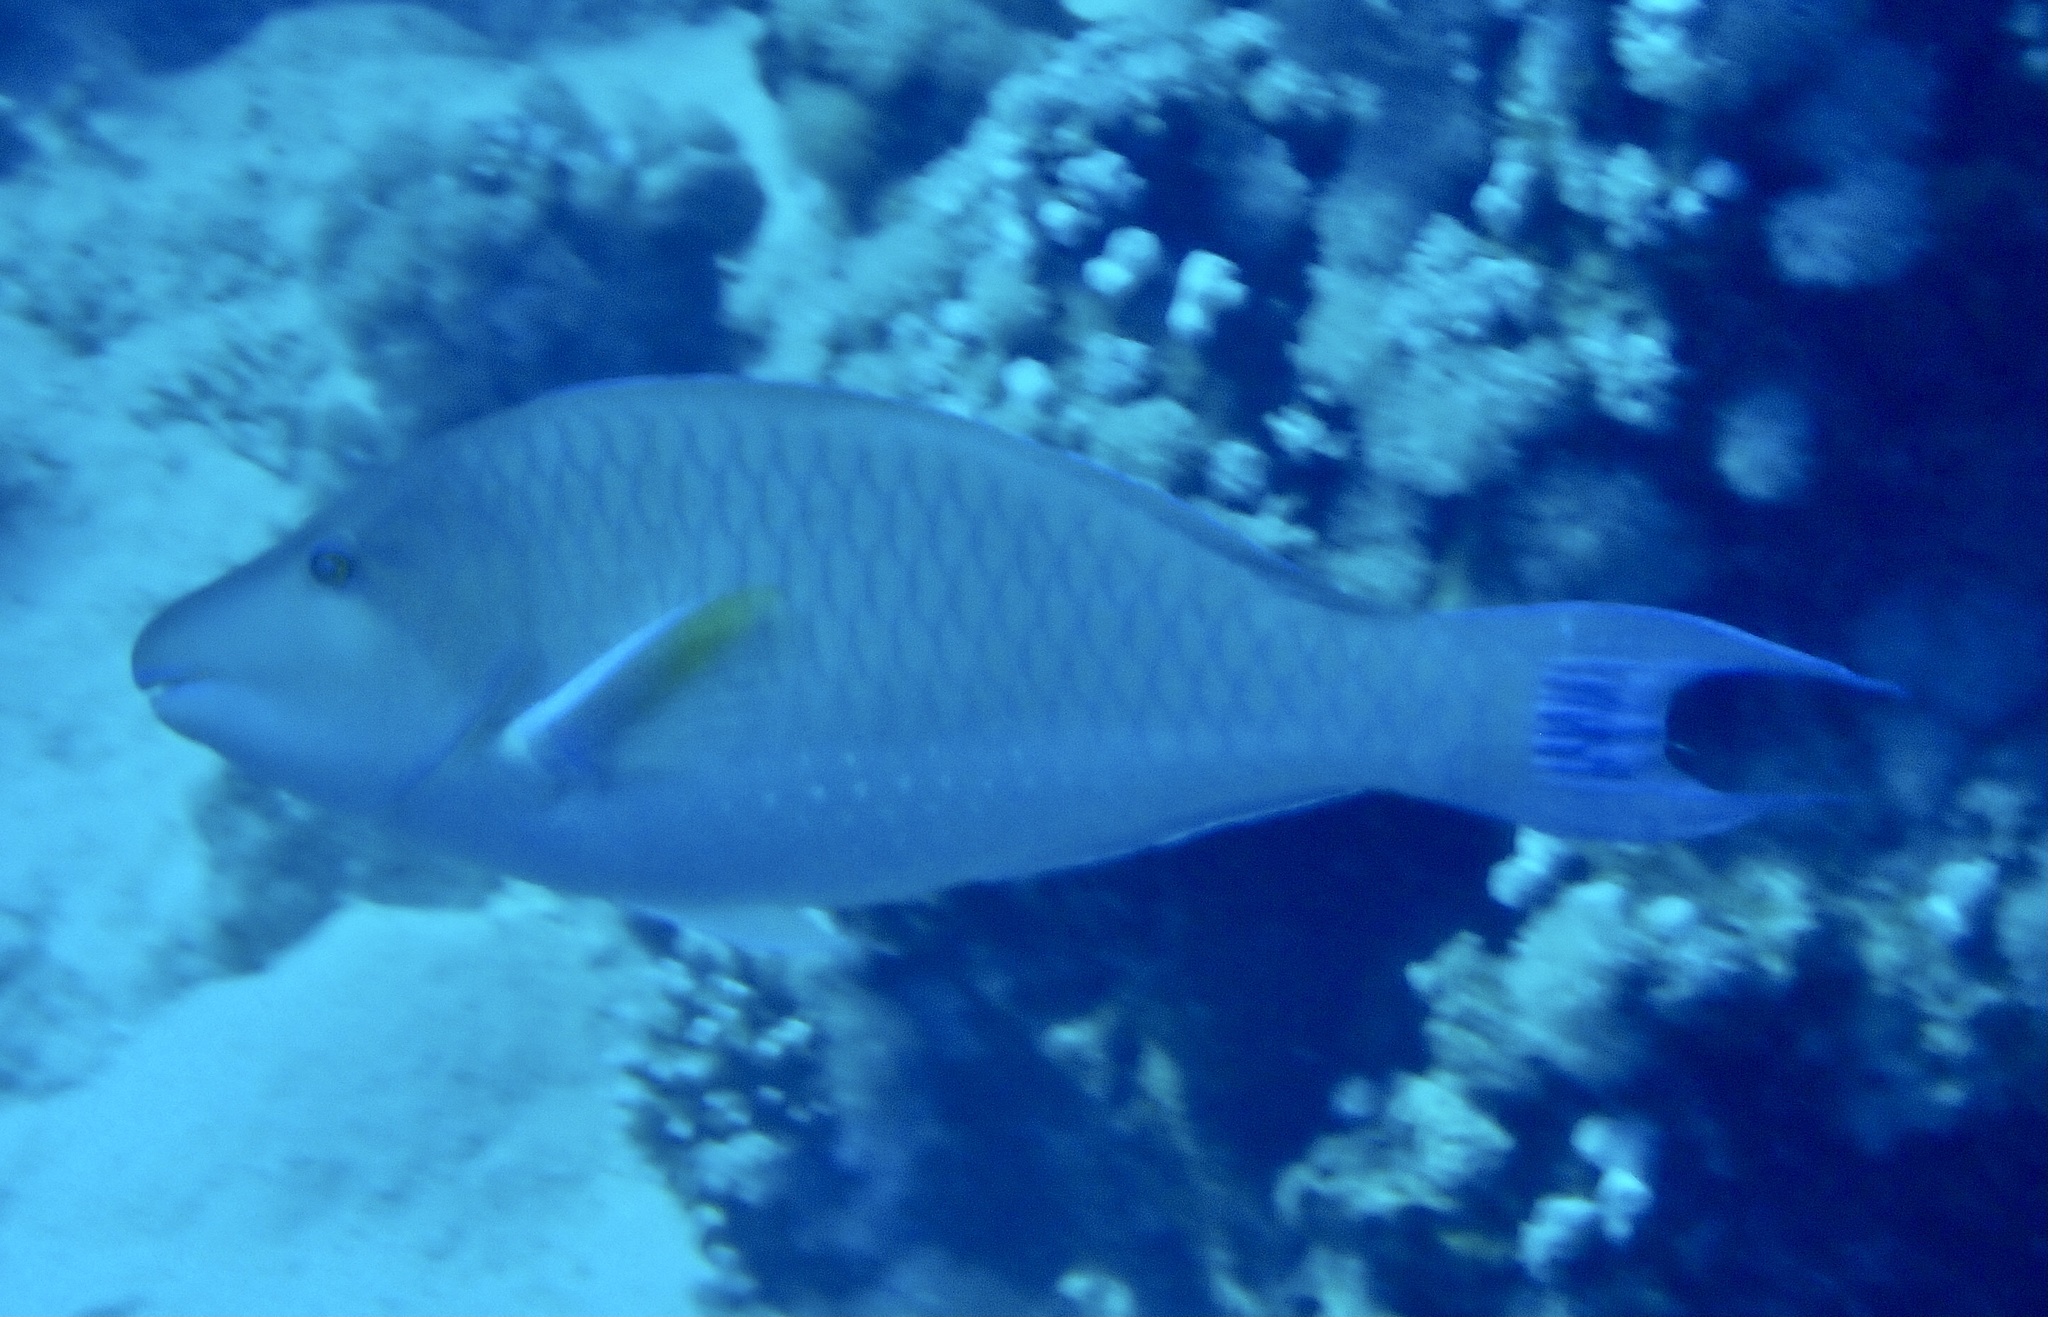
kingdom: Animalia
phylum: Chordata
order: Perciformes
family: Scaridae
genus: Hipposcarus
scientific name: Hipposcarus harid
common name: Candelamoa parrotfish
